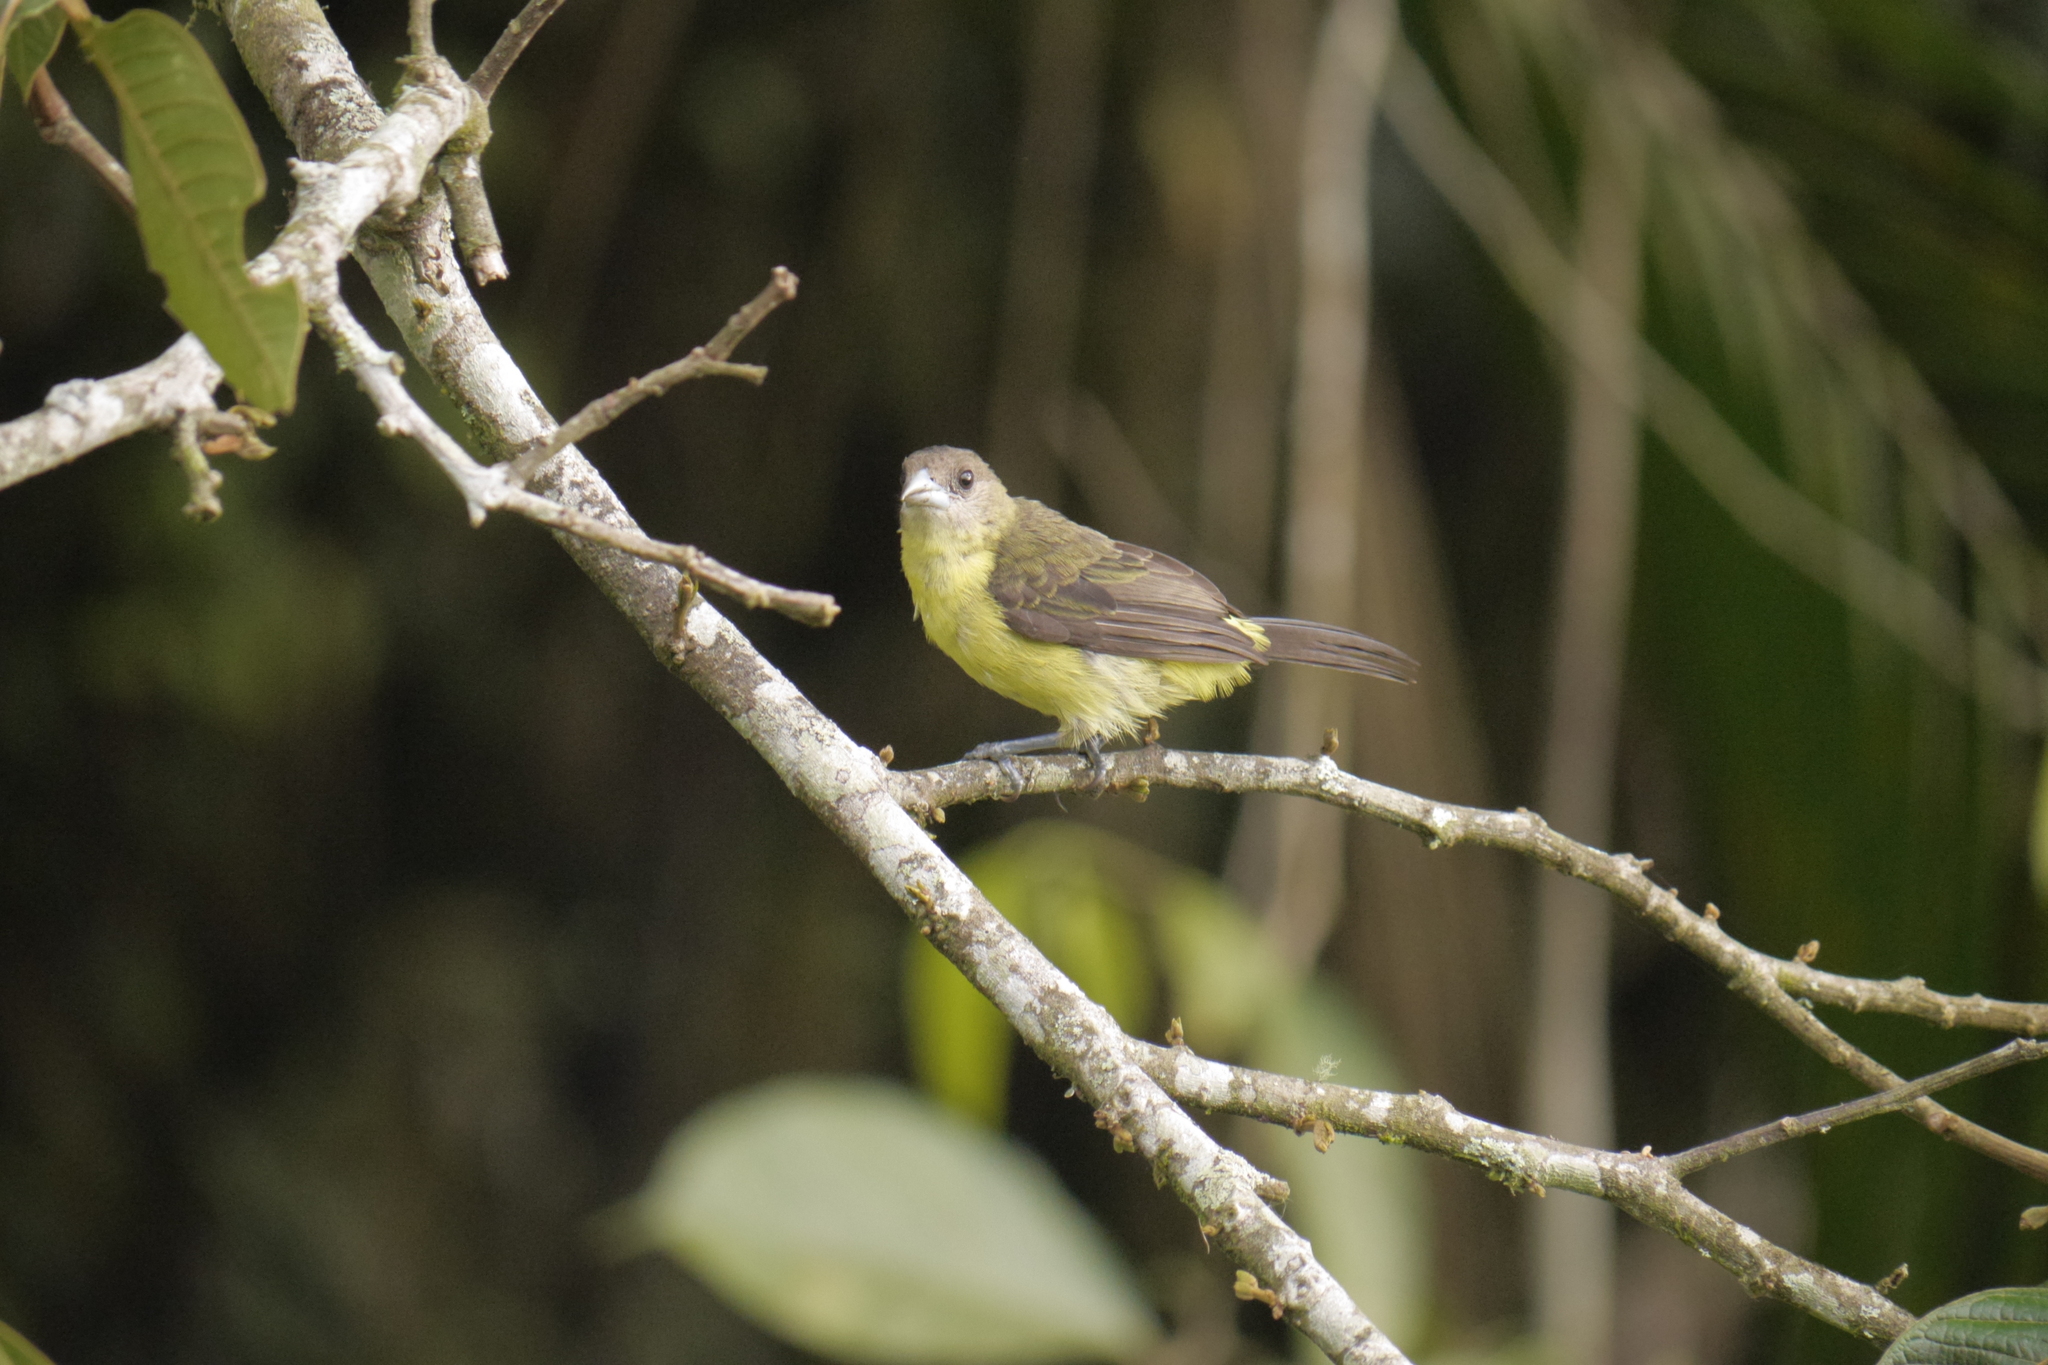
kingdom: Animalia
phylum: Chordata
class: Aves
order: Passeriformes
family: Thraupidae
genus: Ramphocelus
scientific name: Ramphocelus flammigerus
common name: Flame-rumped tanager
